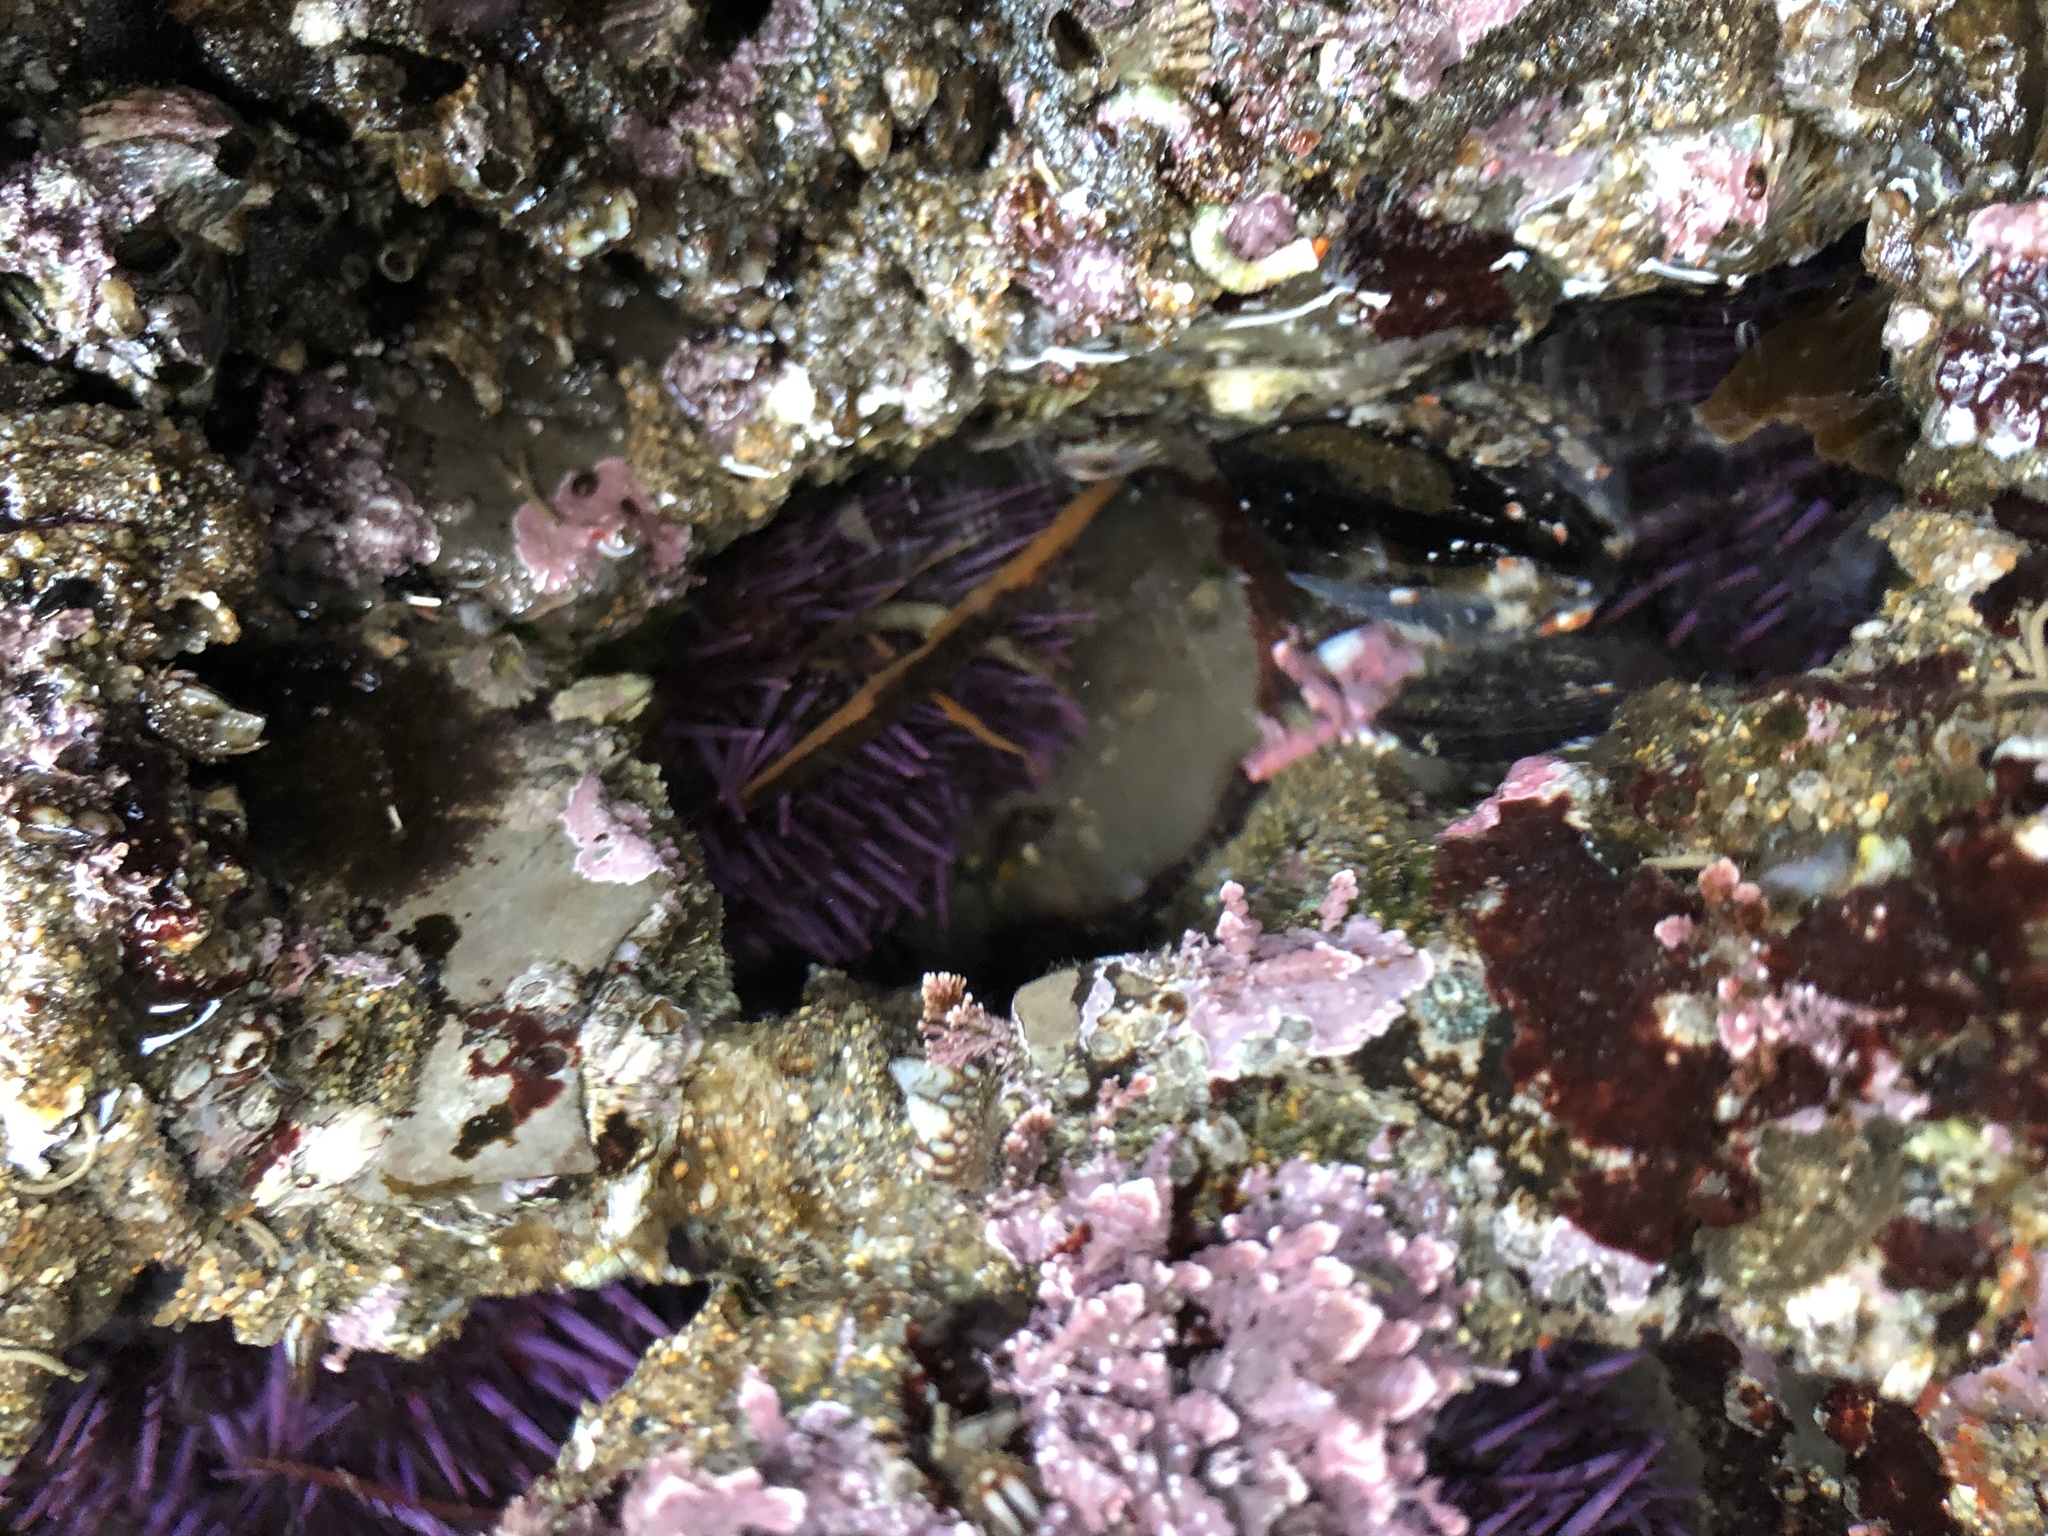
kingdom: Animalia
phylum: Echinodermata
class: Echinoidea
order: Camarodonta
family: Strongylocentrotidae
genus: Strongylocentrotus
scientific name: Strongylocentrotus purpuratus
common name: Purple sea urchin
